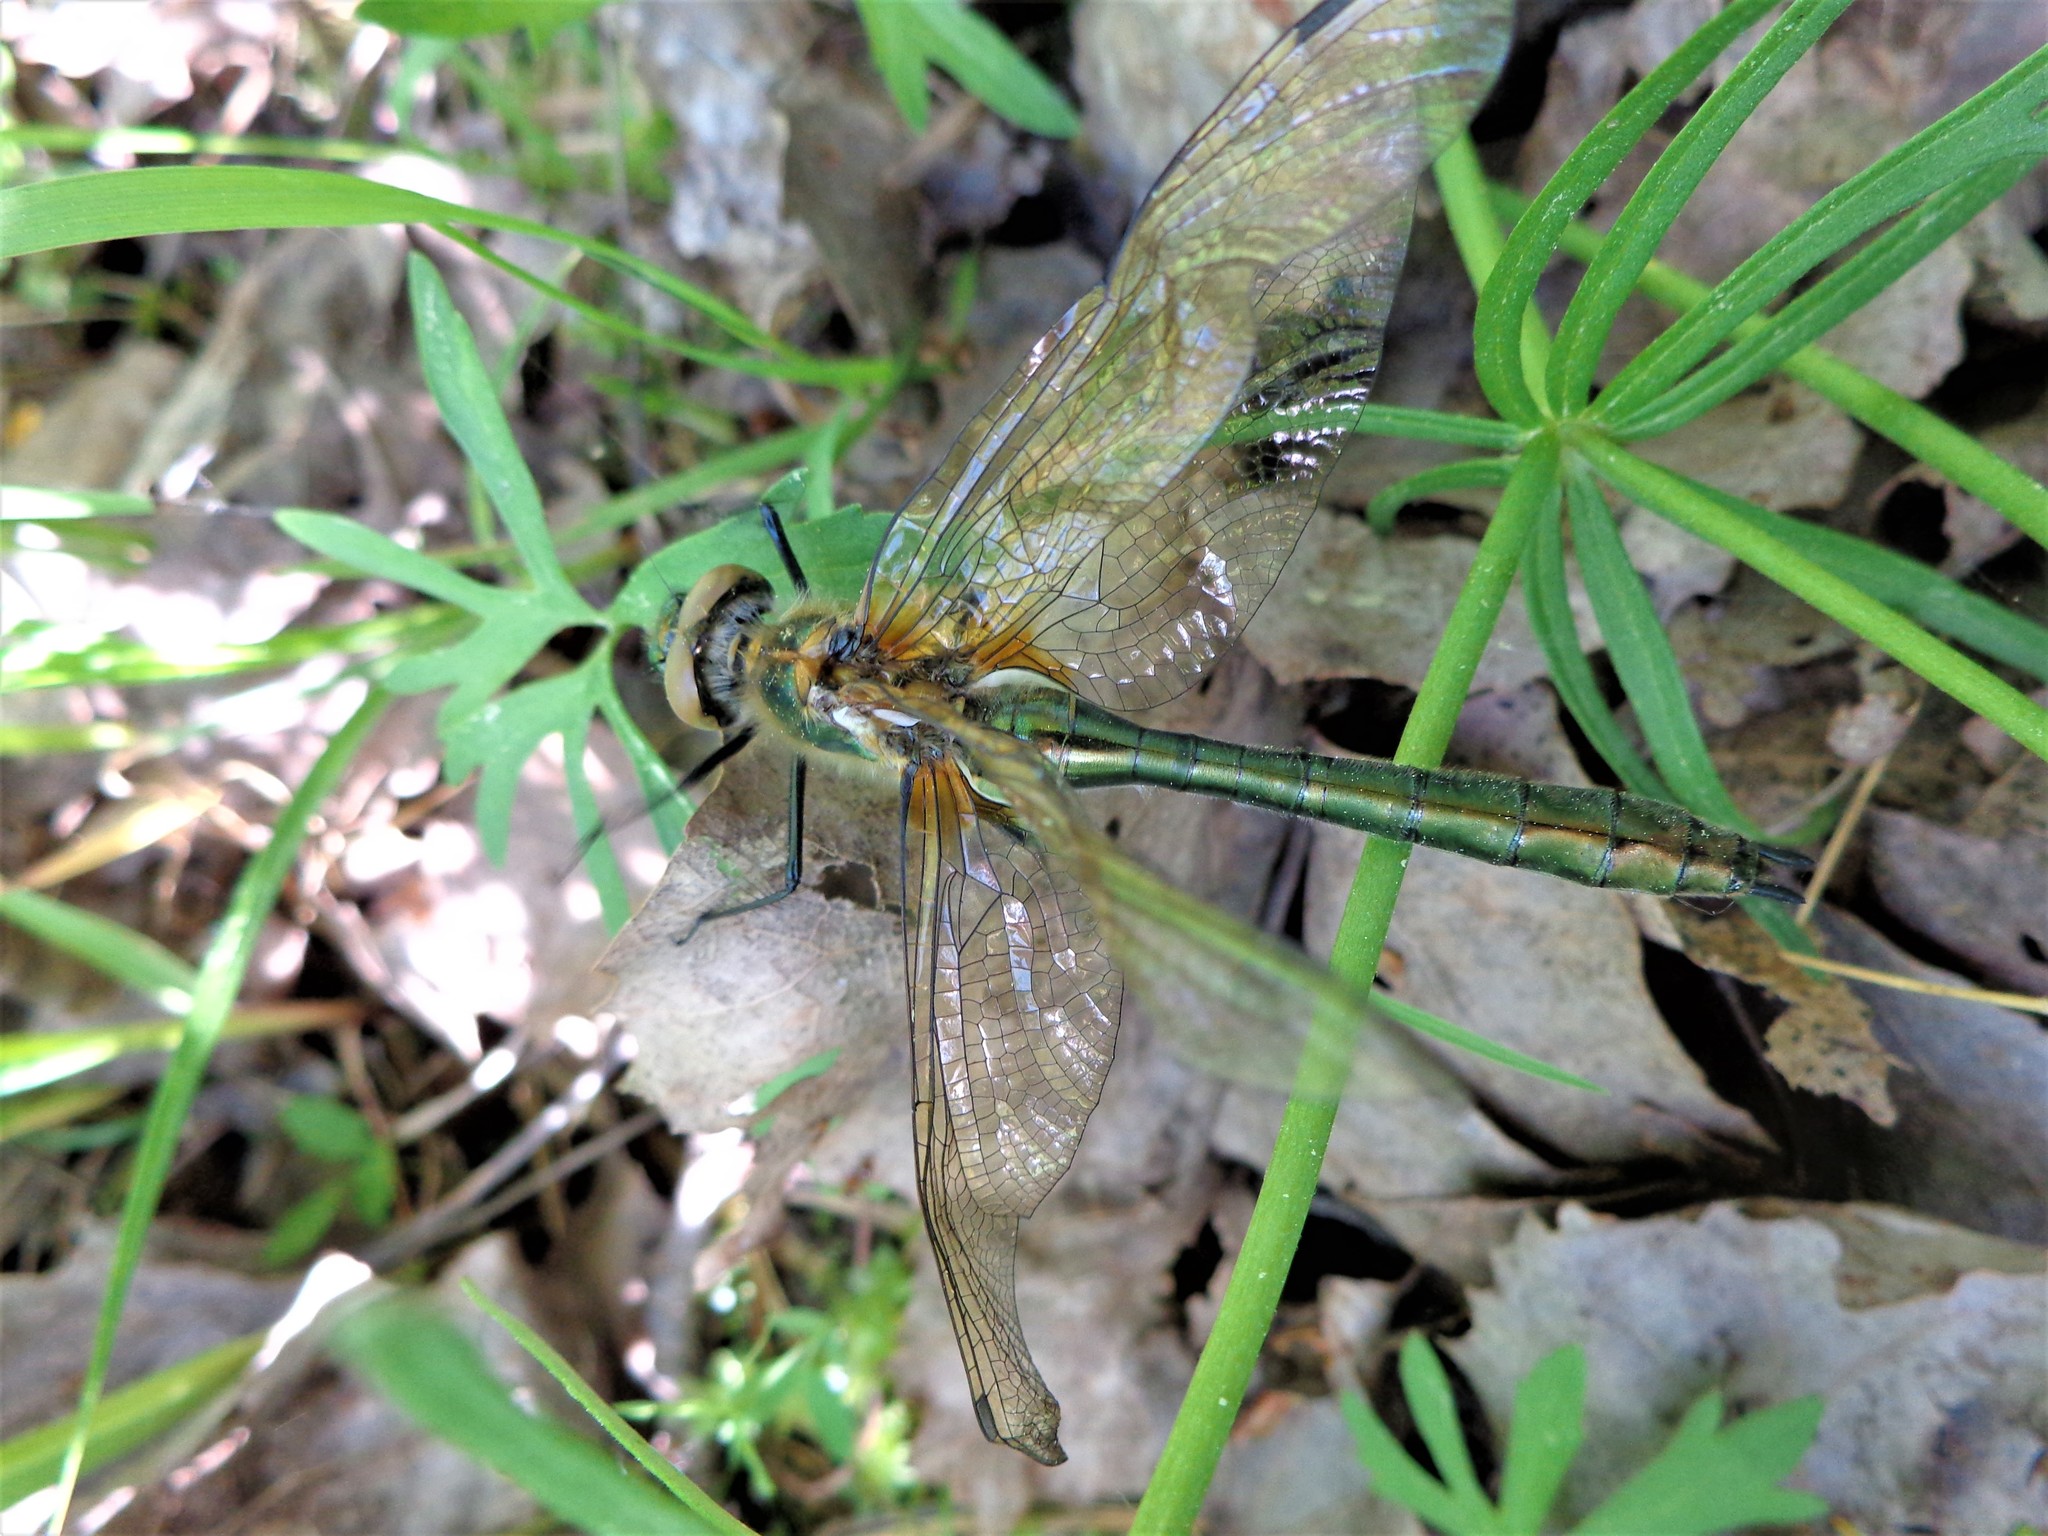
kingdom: Animalia
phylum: Arthropoda
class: Insecta
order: Odonata
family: Corduliidae
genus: Cordulia
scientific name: Cordulia aenea
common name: Downy emerald
